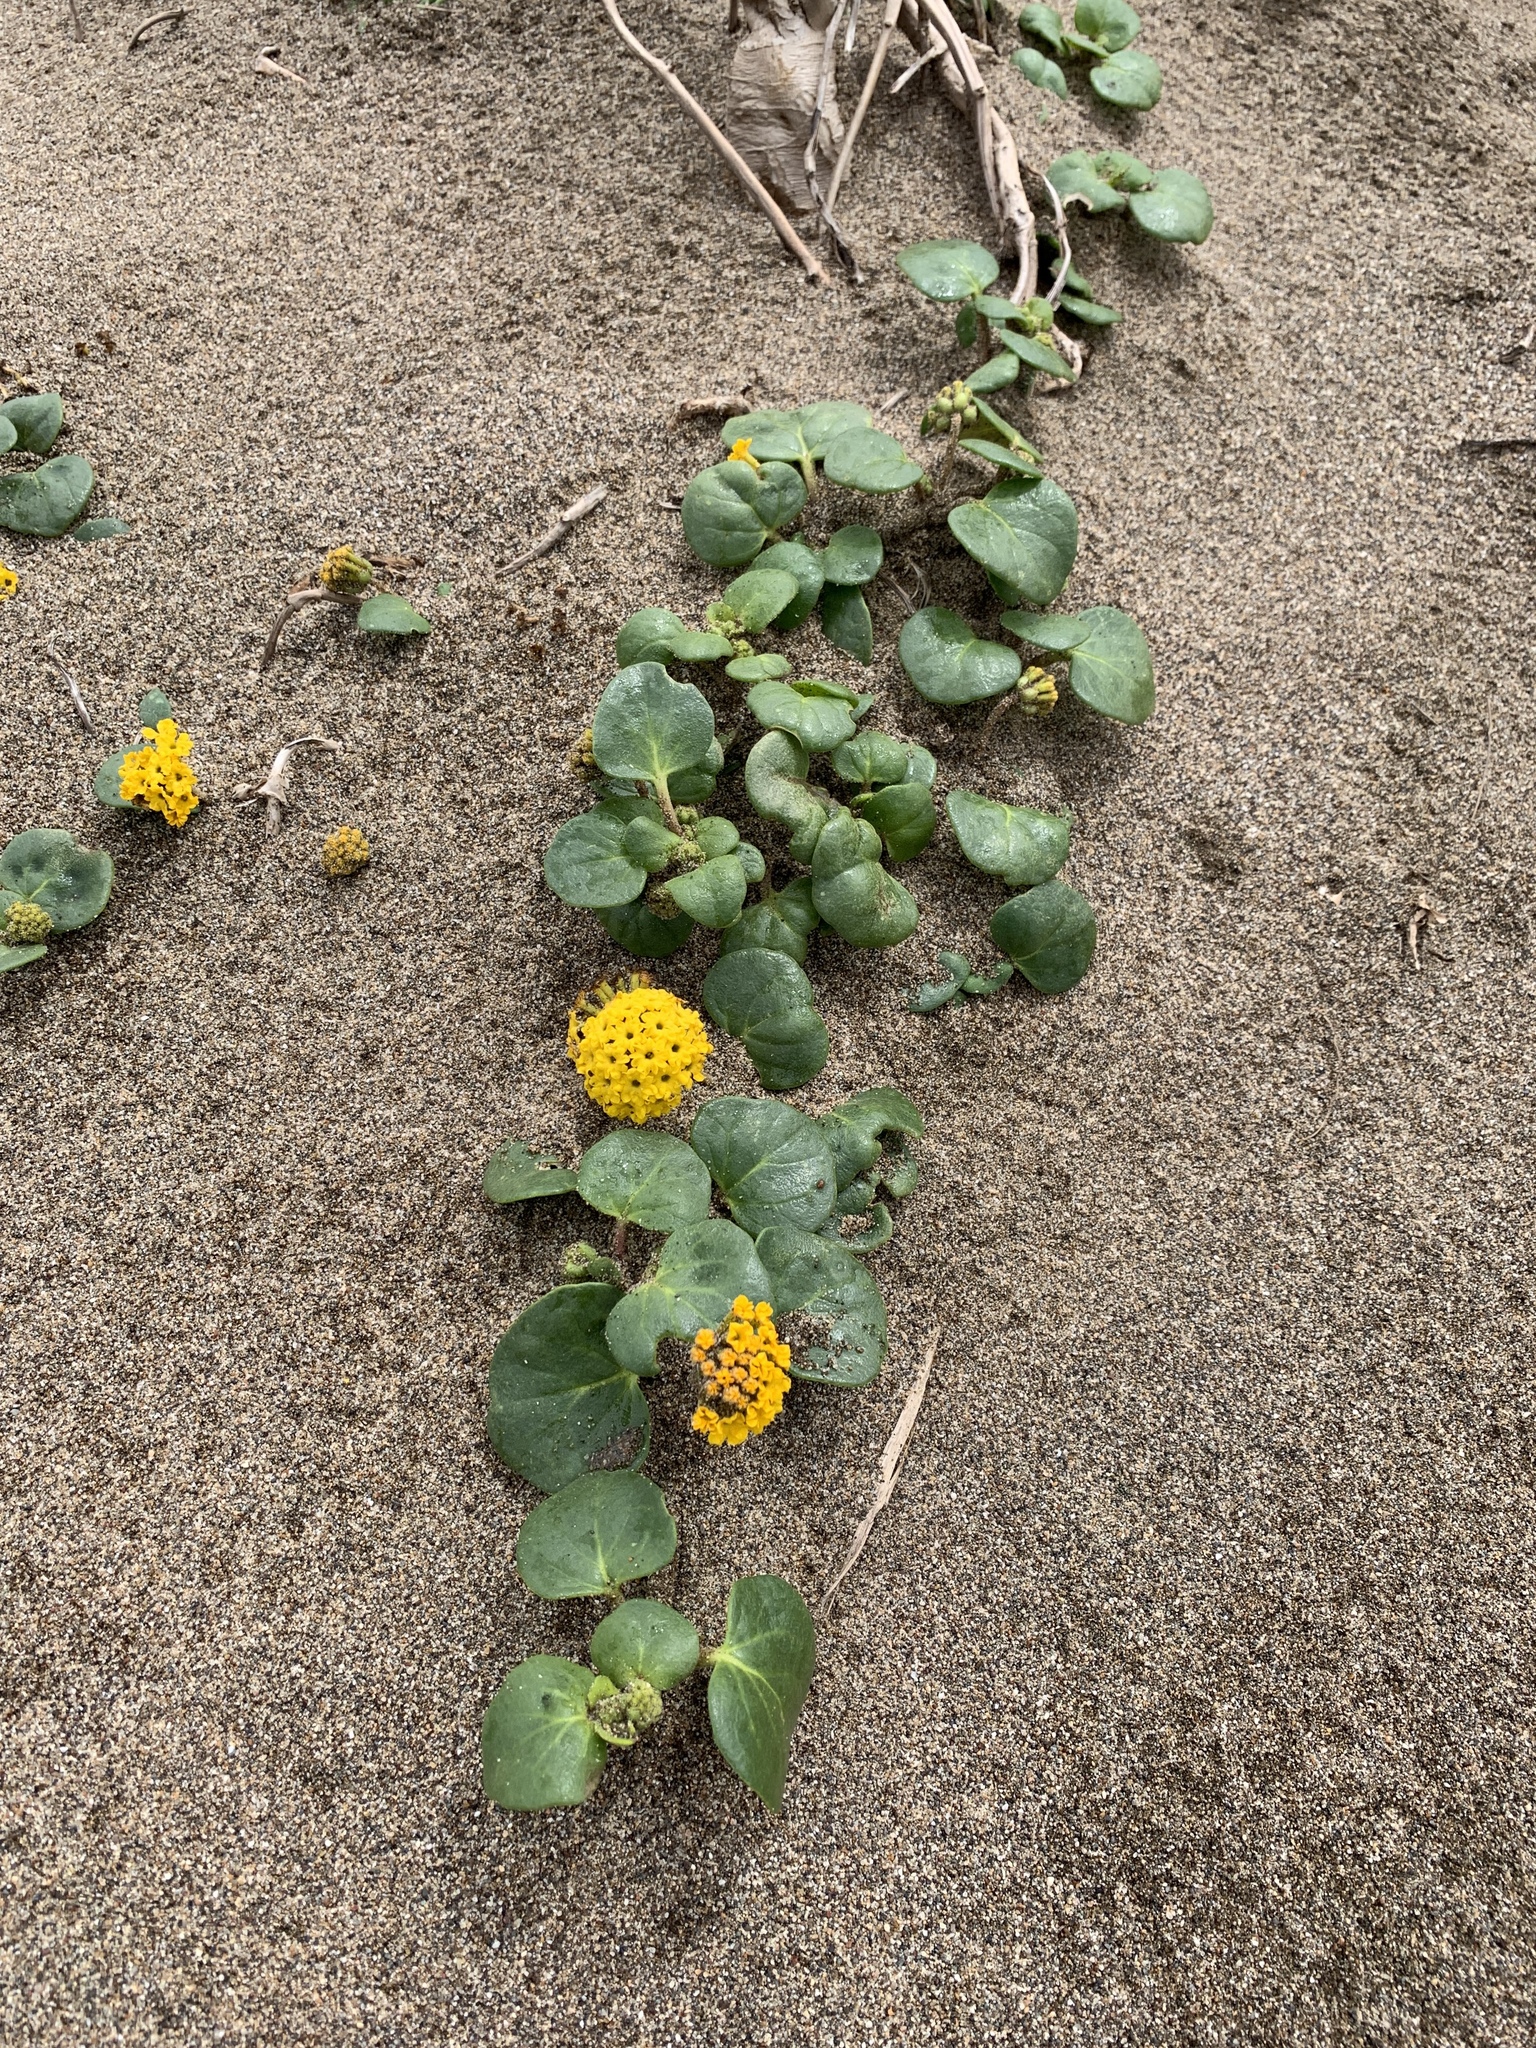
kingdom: Plantae
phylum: Tracheophyta
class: Magnoliopsida
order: Caryophyllales
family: Nyctaginaceae
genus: Abronia
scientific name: Abronia latifolia
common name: Yellow sand-verbena
